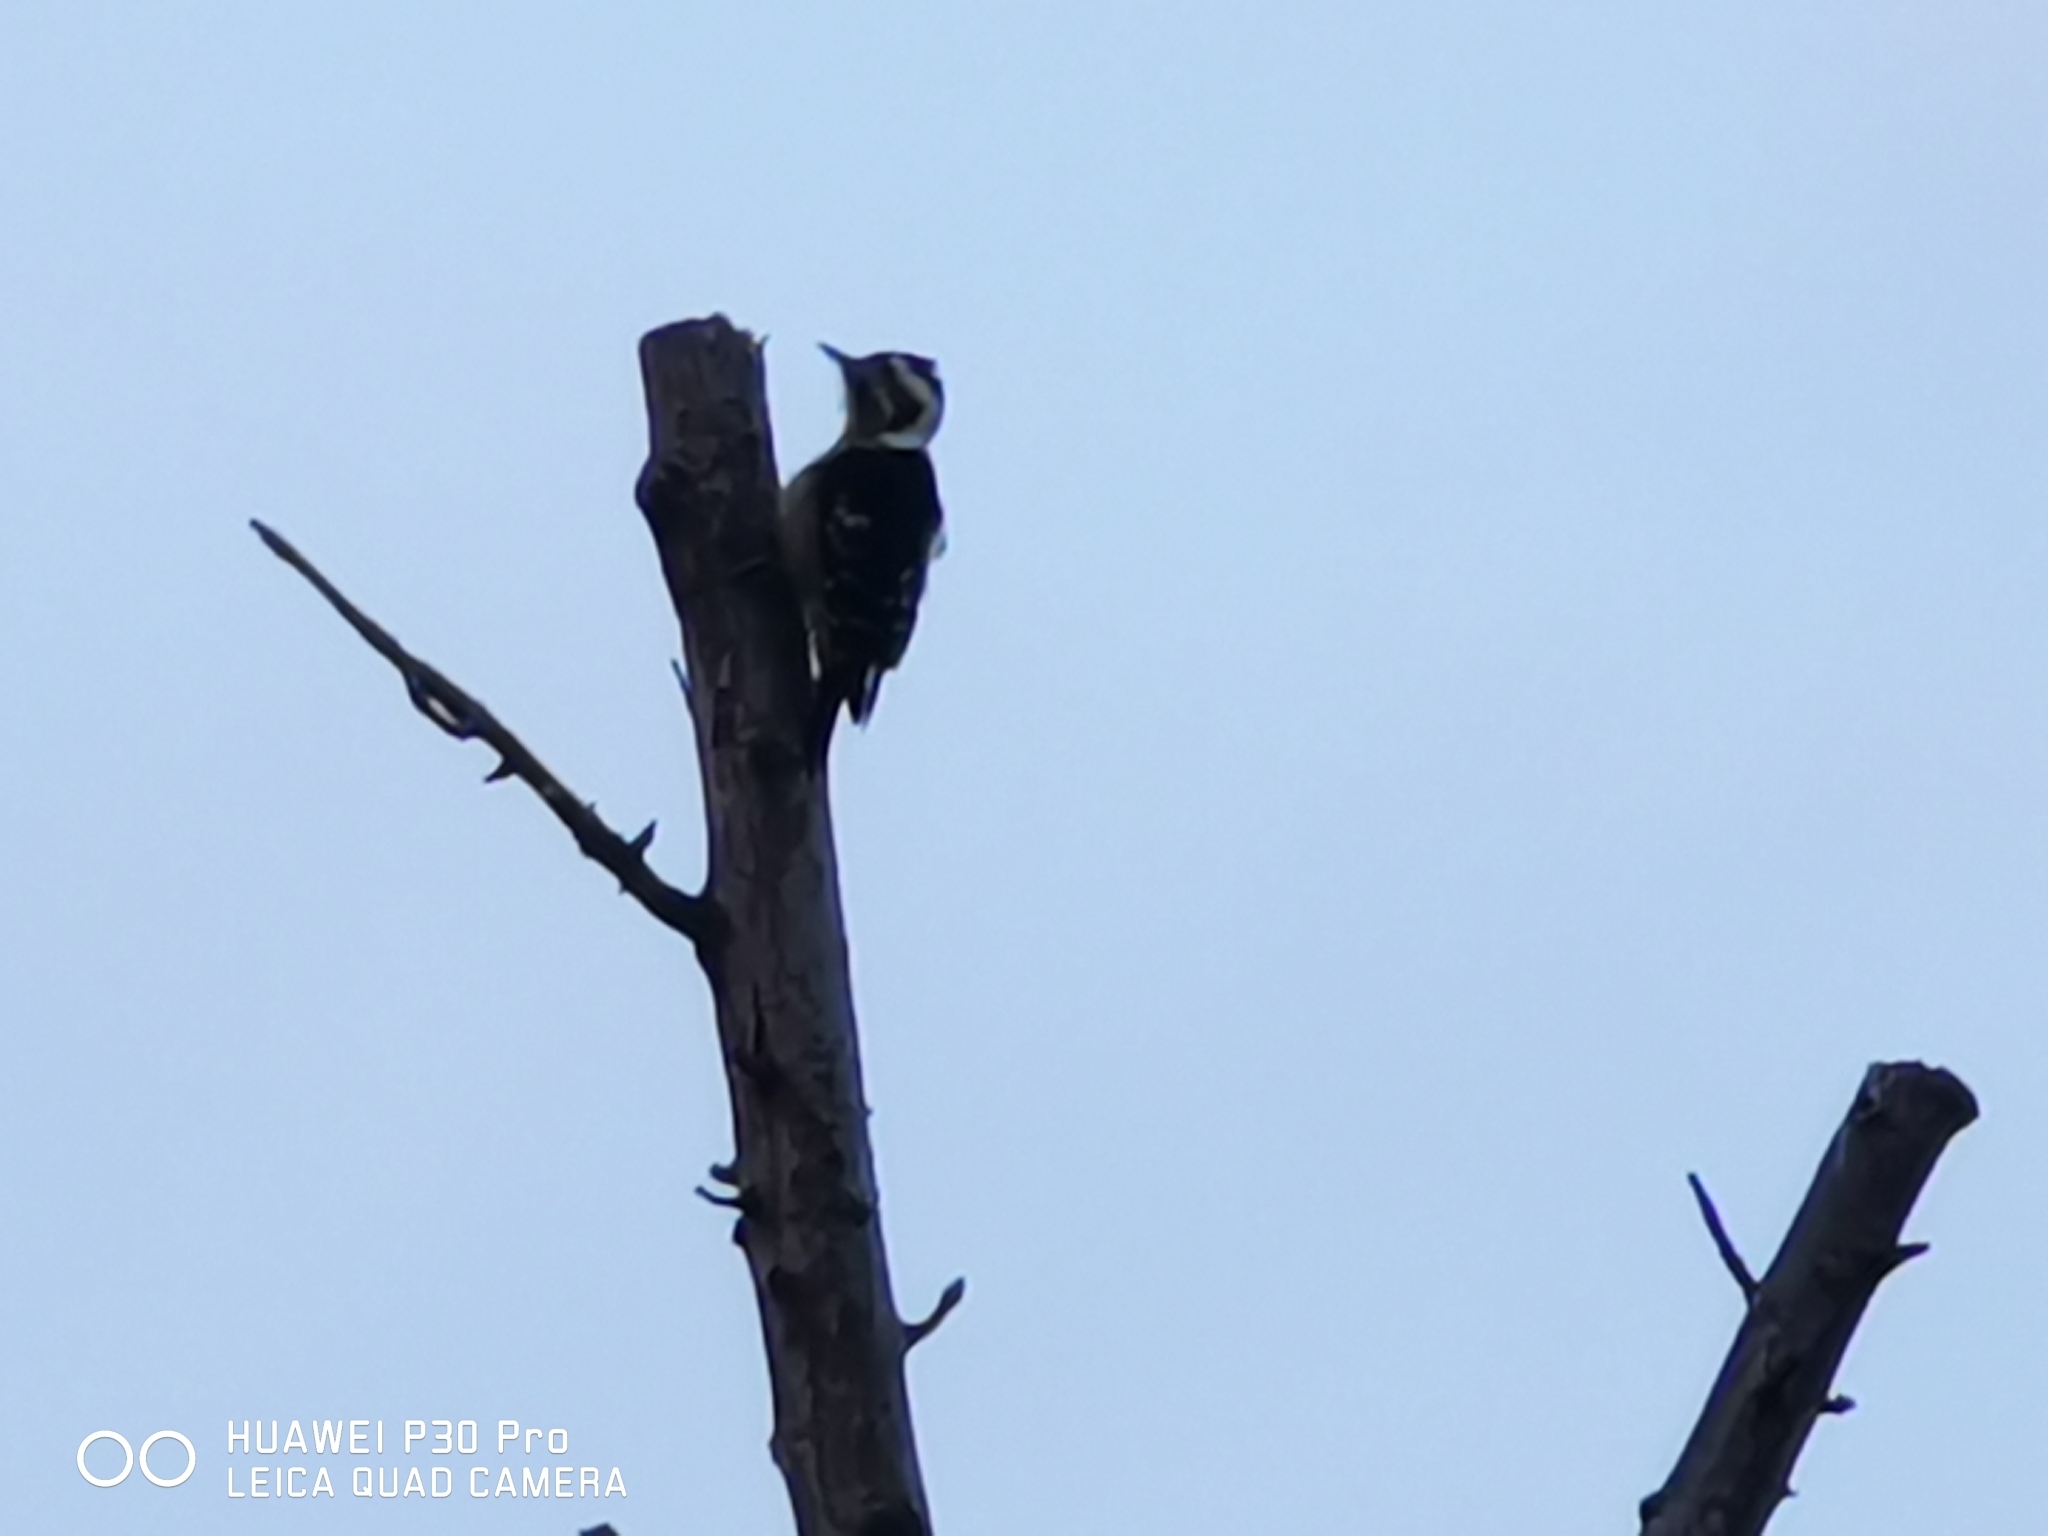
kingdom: Animalia
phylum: Chordata
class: Aves
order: Piciformes
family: Picidae
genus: Yungipicus
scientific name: Yungipicus canicapillus
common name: Grey-capped pygmy woodpecker
